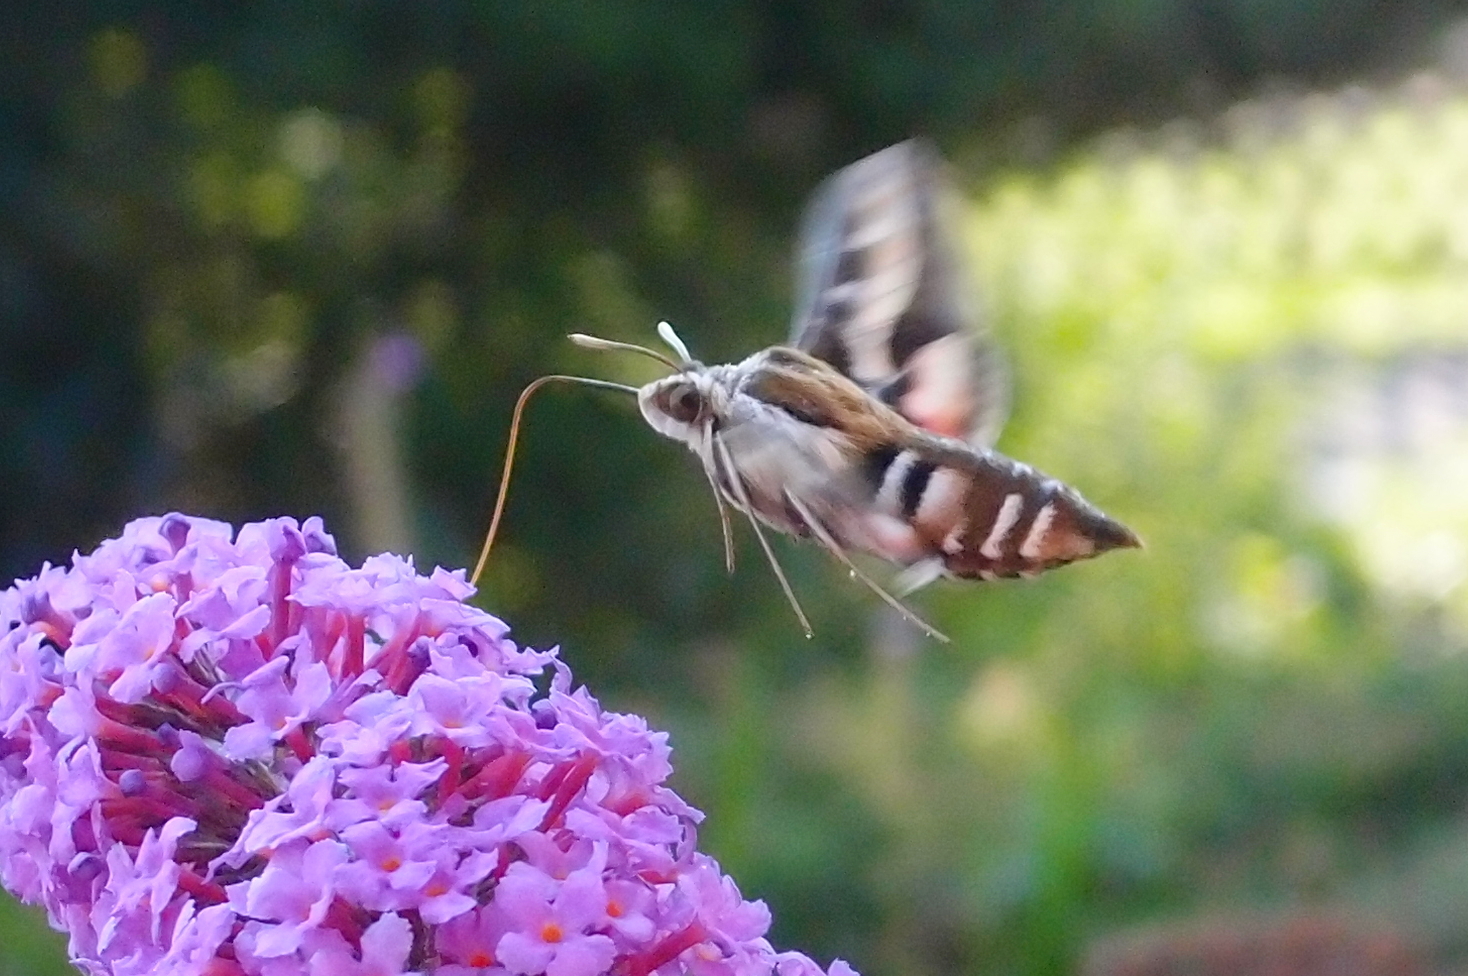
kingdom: Animalia
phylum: Arthropoda
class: Insecta
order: Lepidoptera
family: Sphingidae
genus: Hyles
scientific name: Hyles gallii
